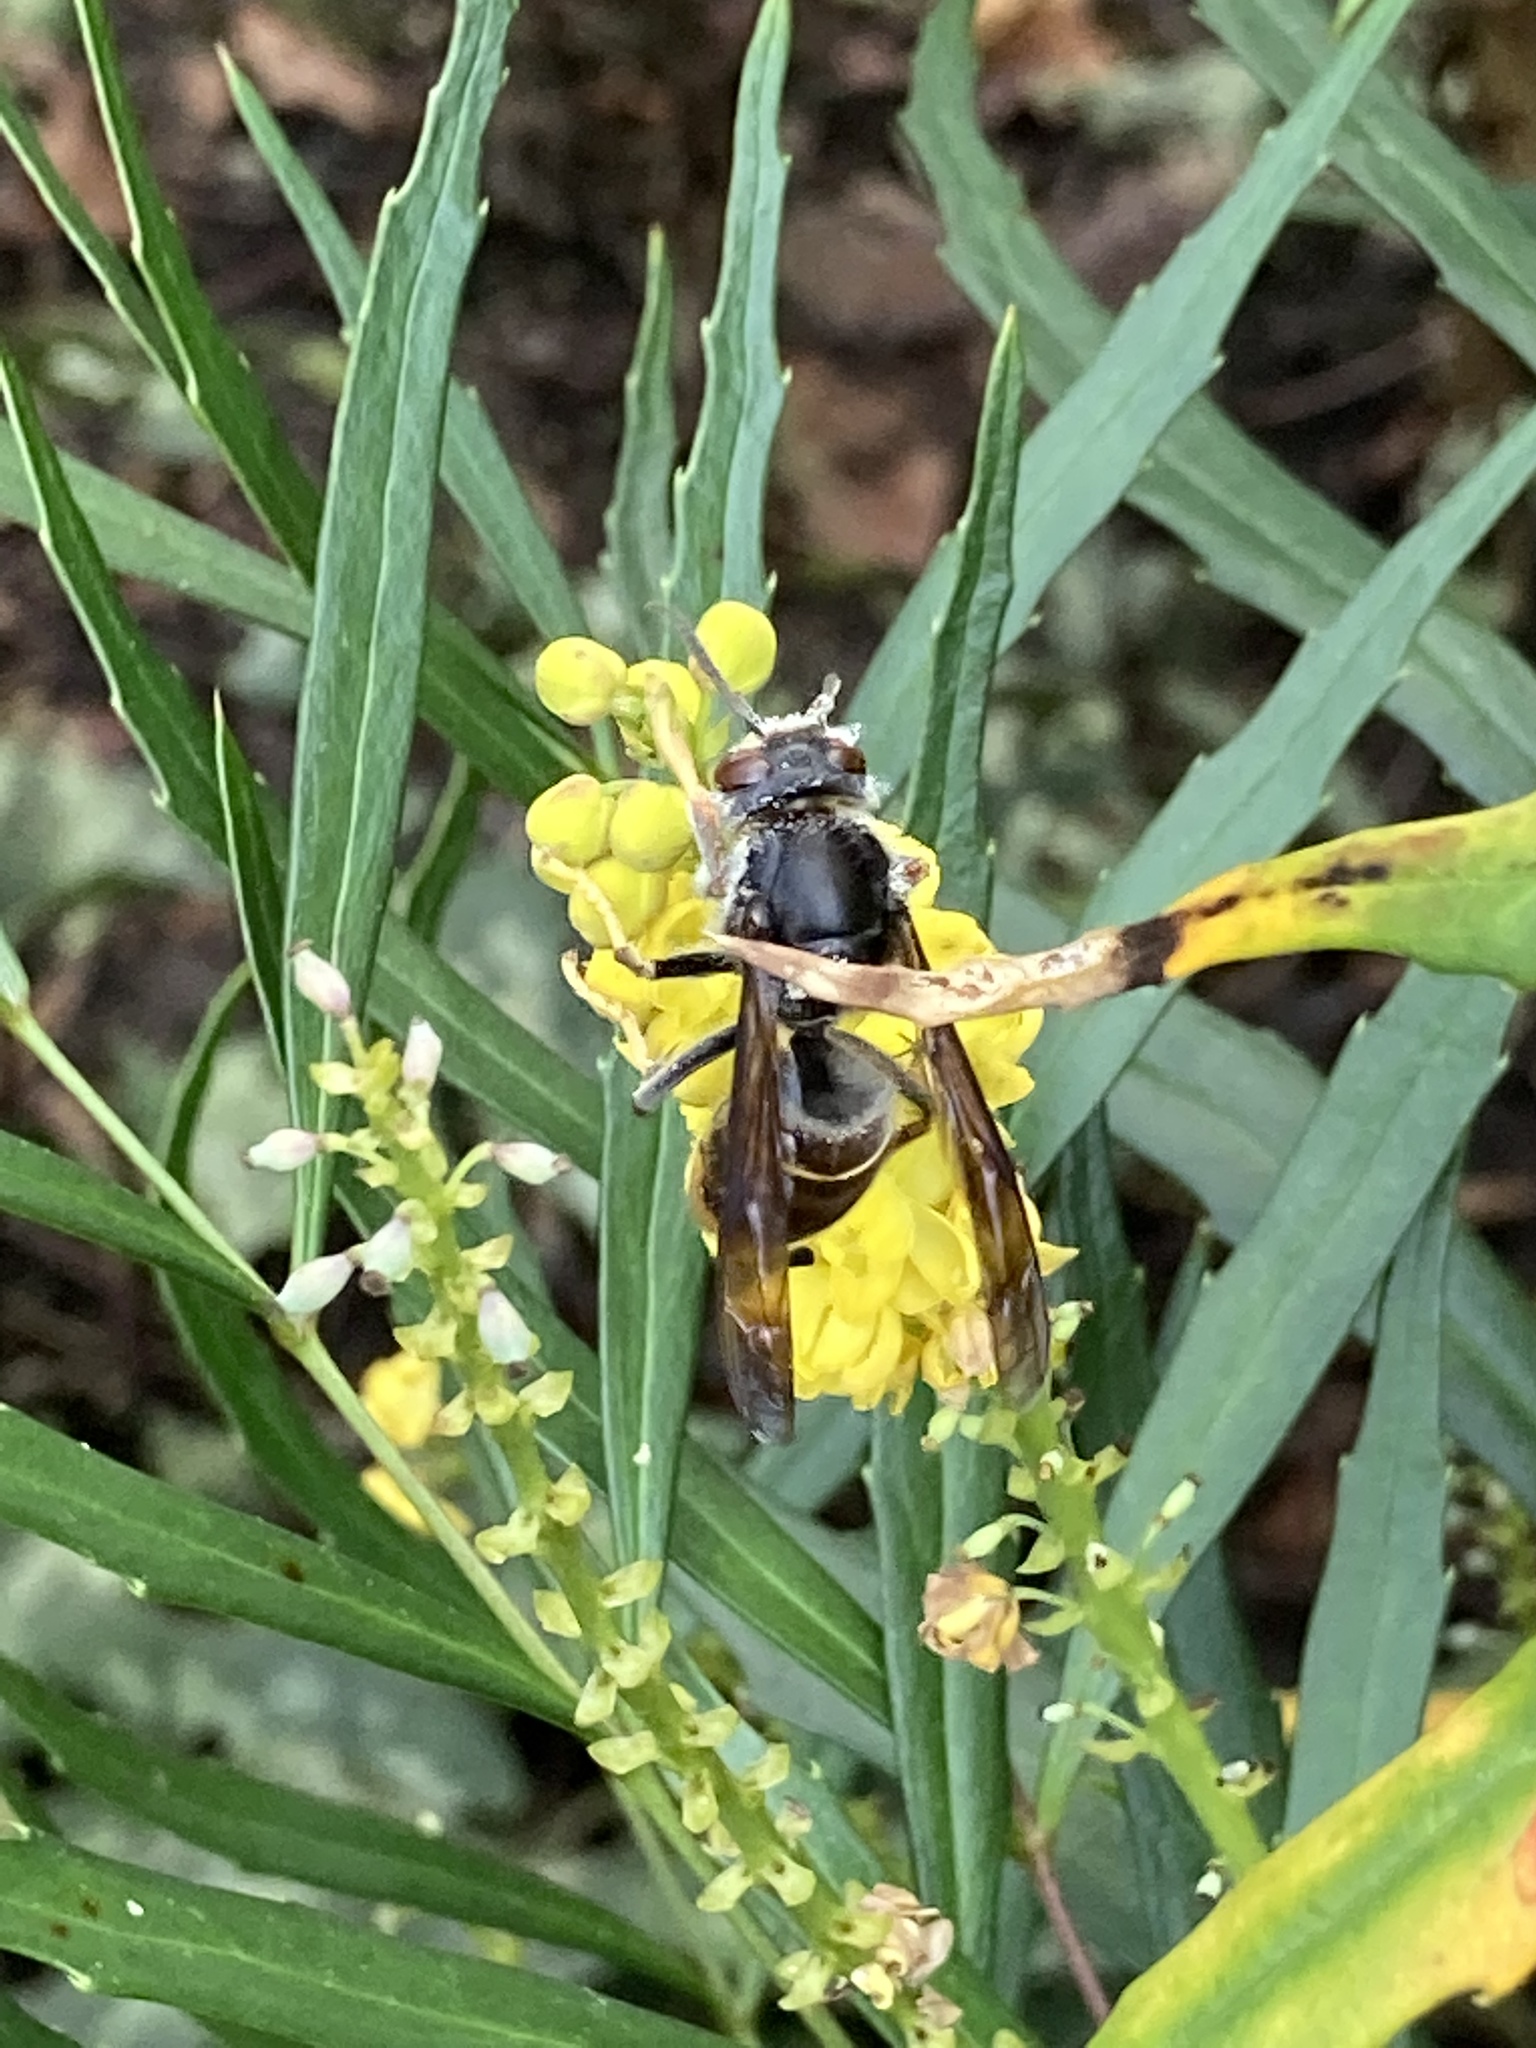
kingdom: Animalia
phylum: Arthropoda
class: Insecta
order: Hymenoptera
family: Vespidae
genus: Vespa
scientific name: Vespa velutina
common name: Asian hornet
